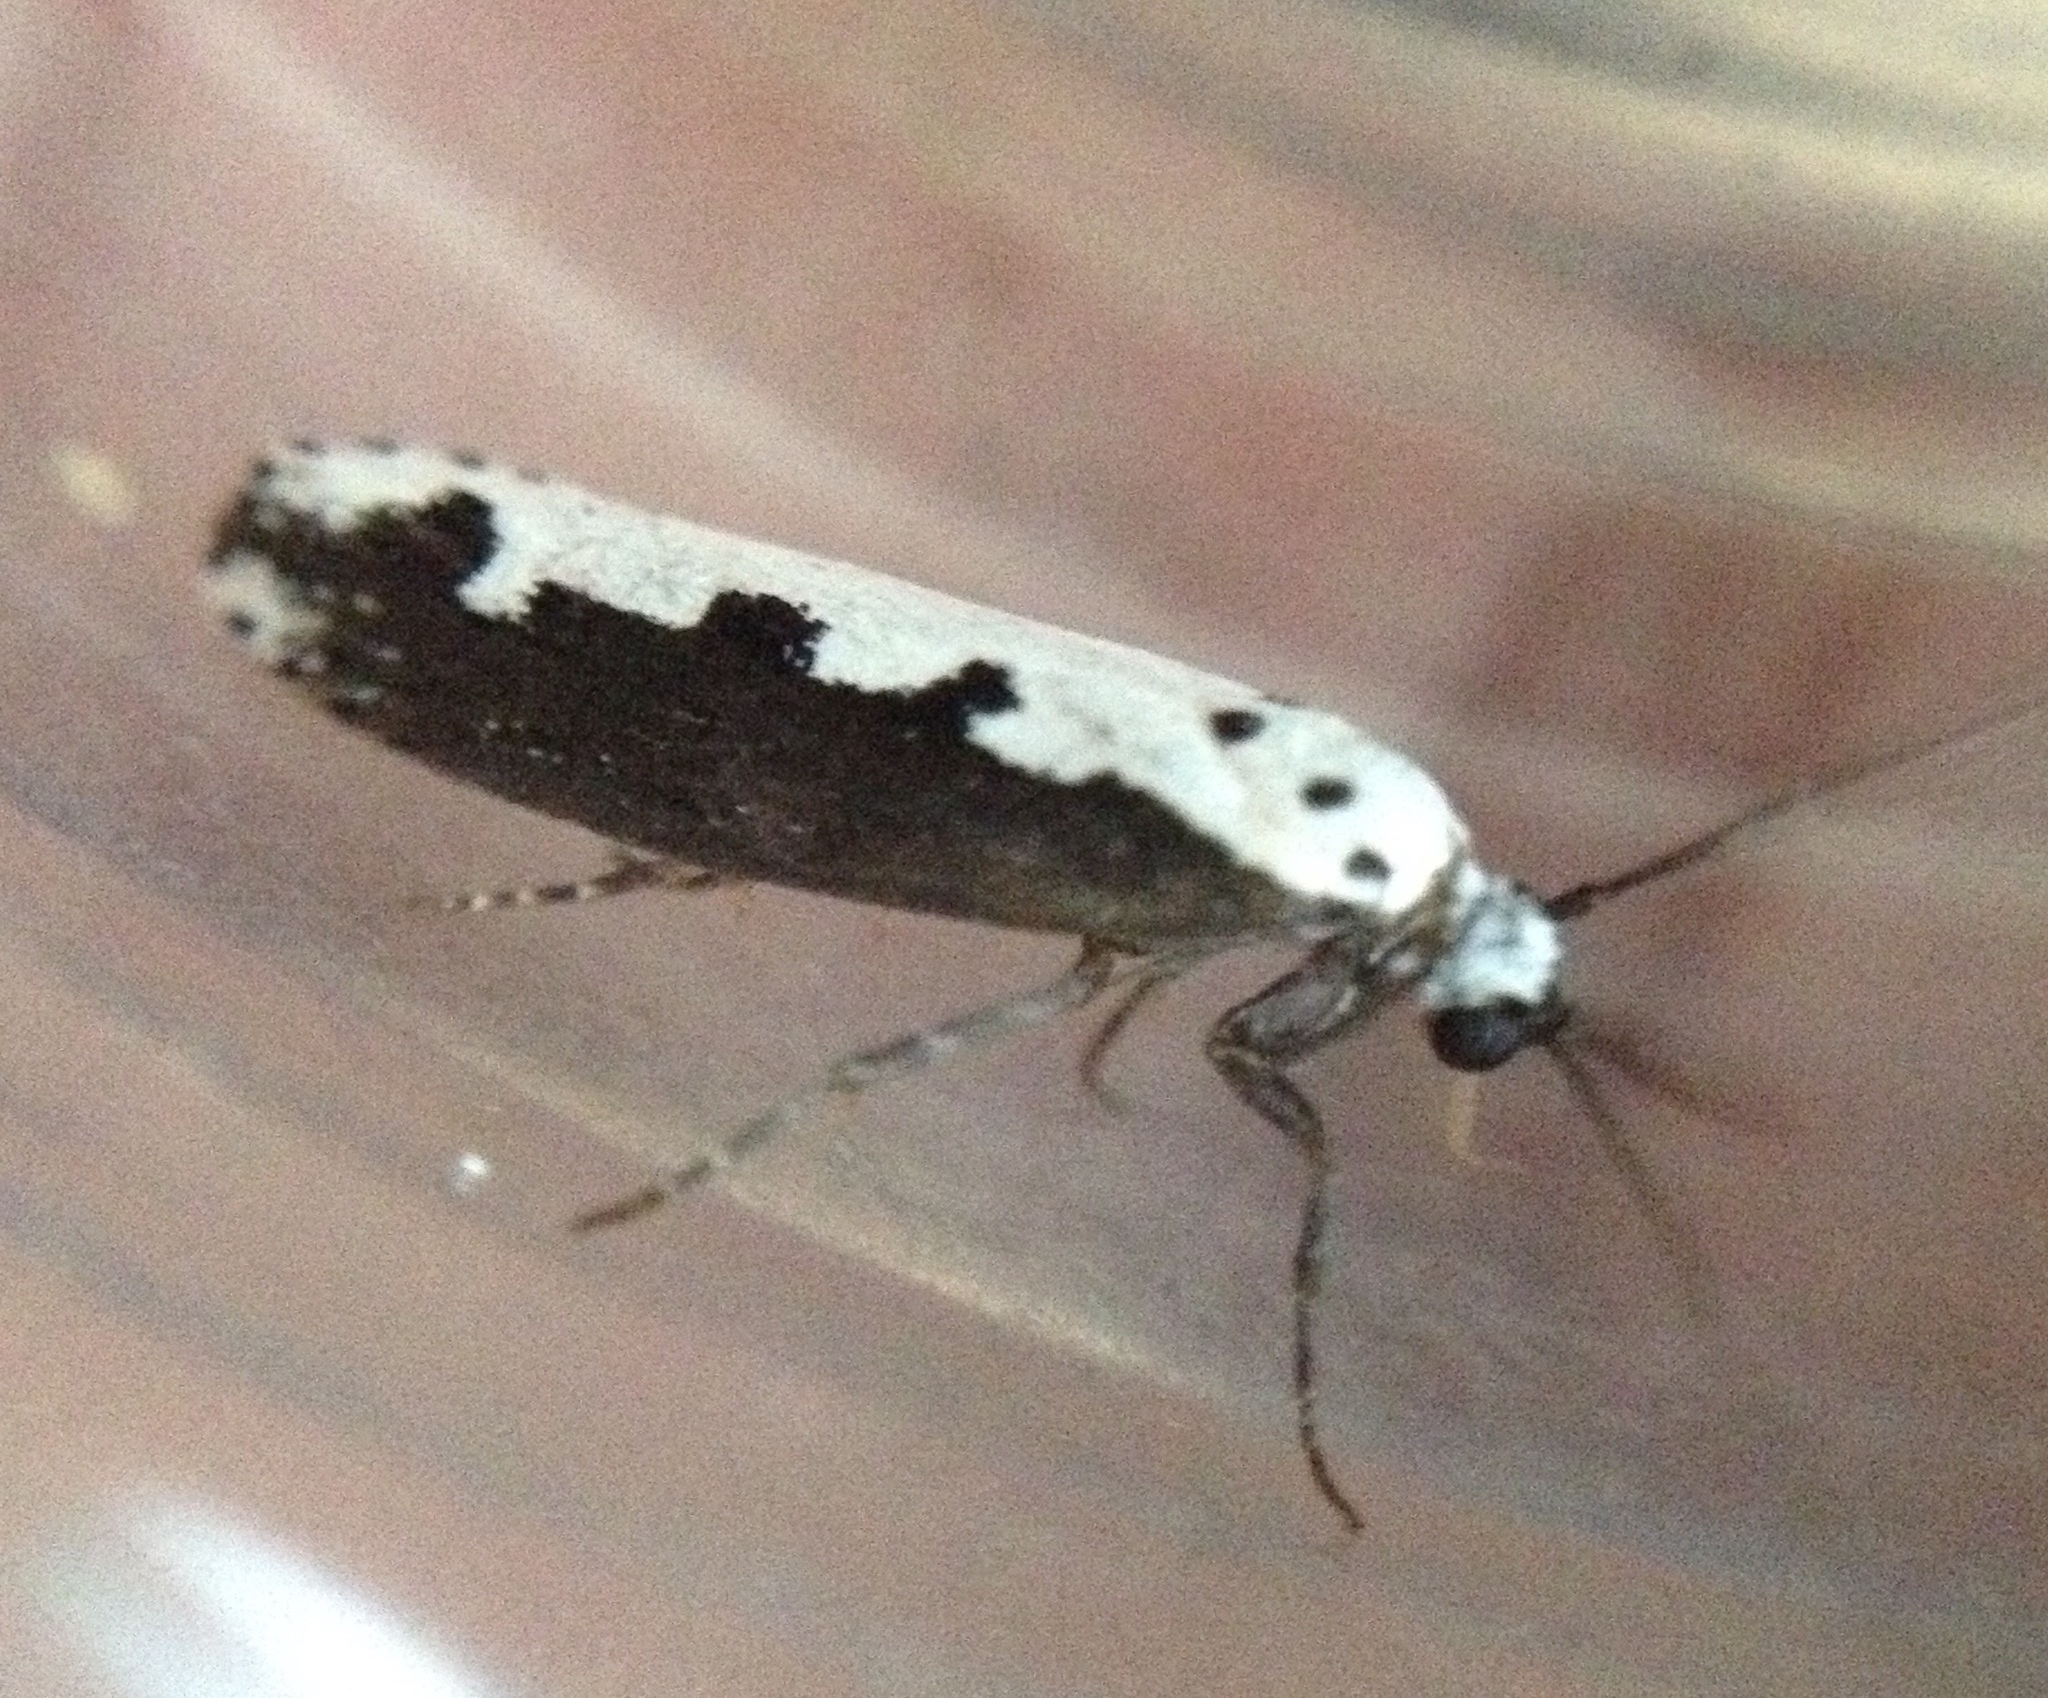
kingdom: Animalia
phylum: Arthropoda
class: Insecta
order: Lepidoptera
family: Ethmiidae
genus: Ethmia
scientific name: Ethmia bipunctella
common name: Bordered ermel
